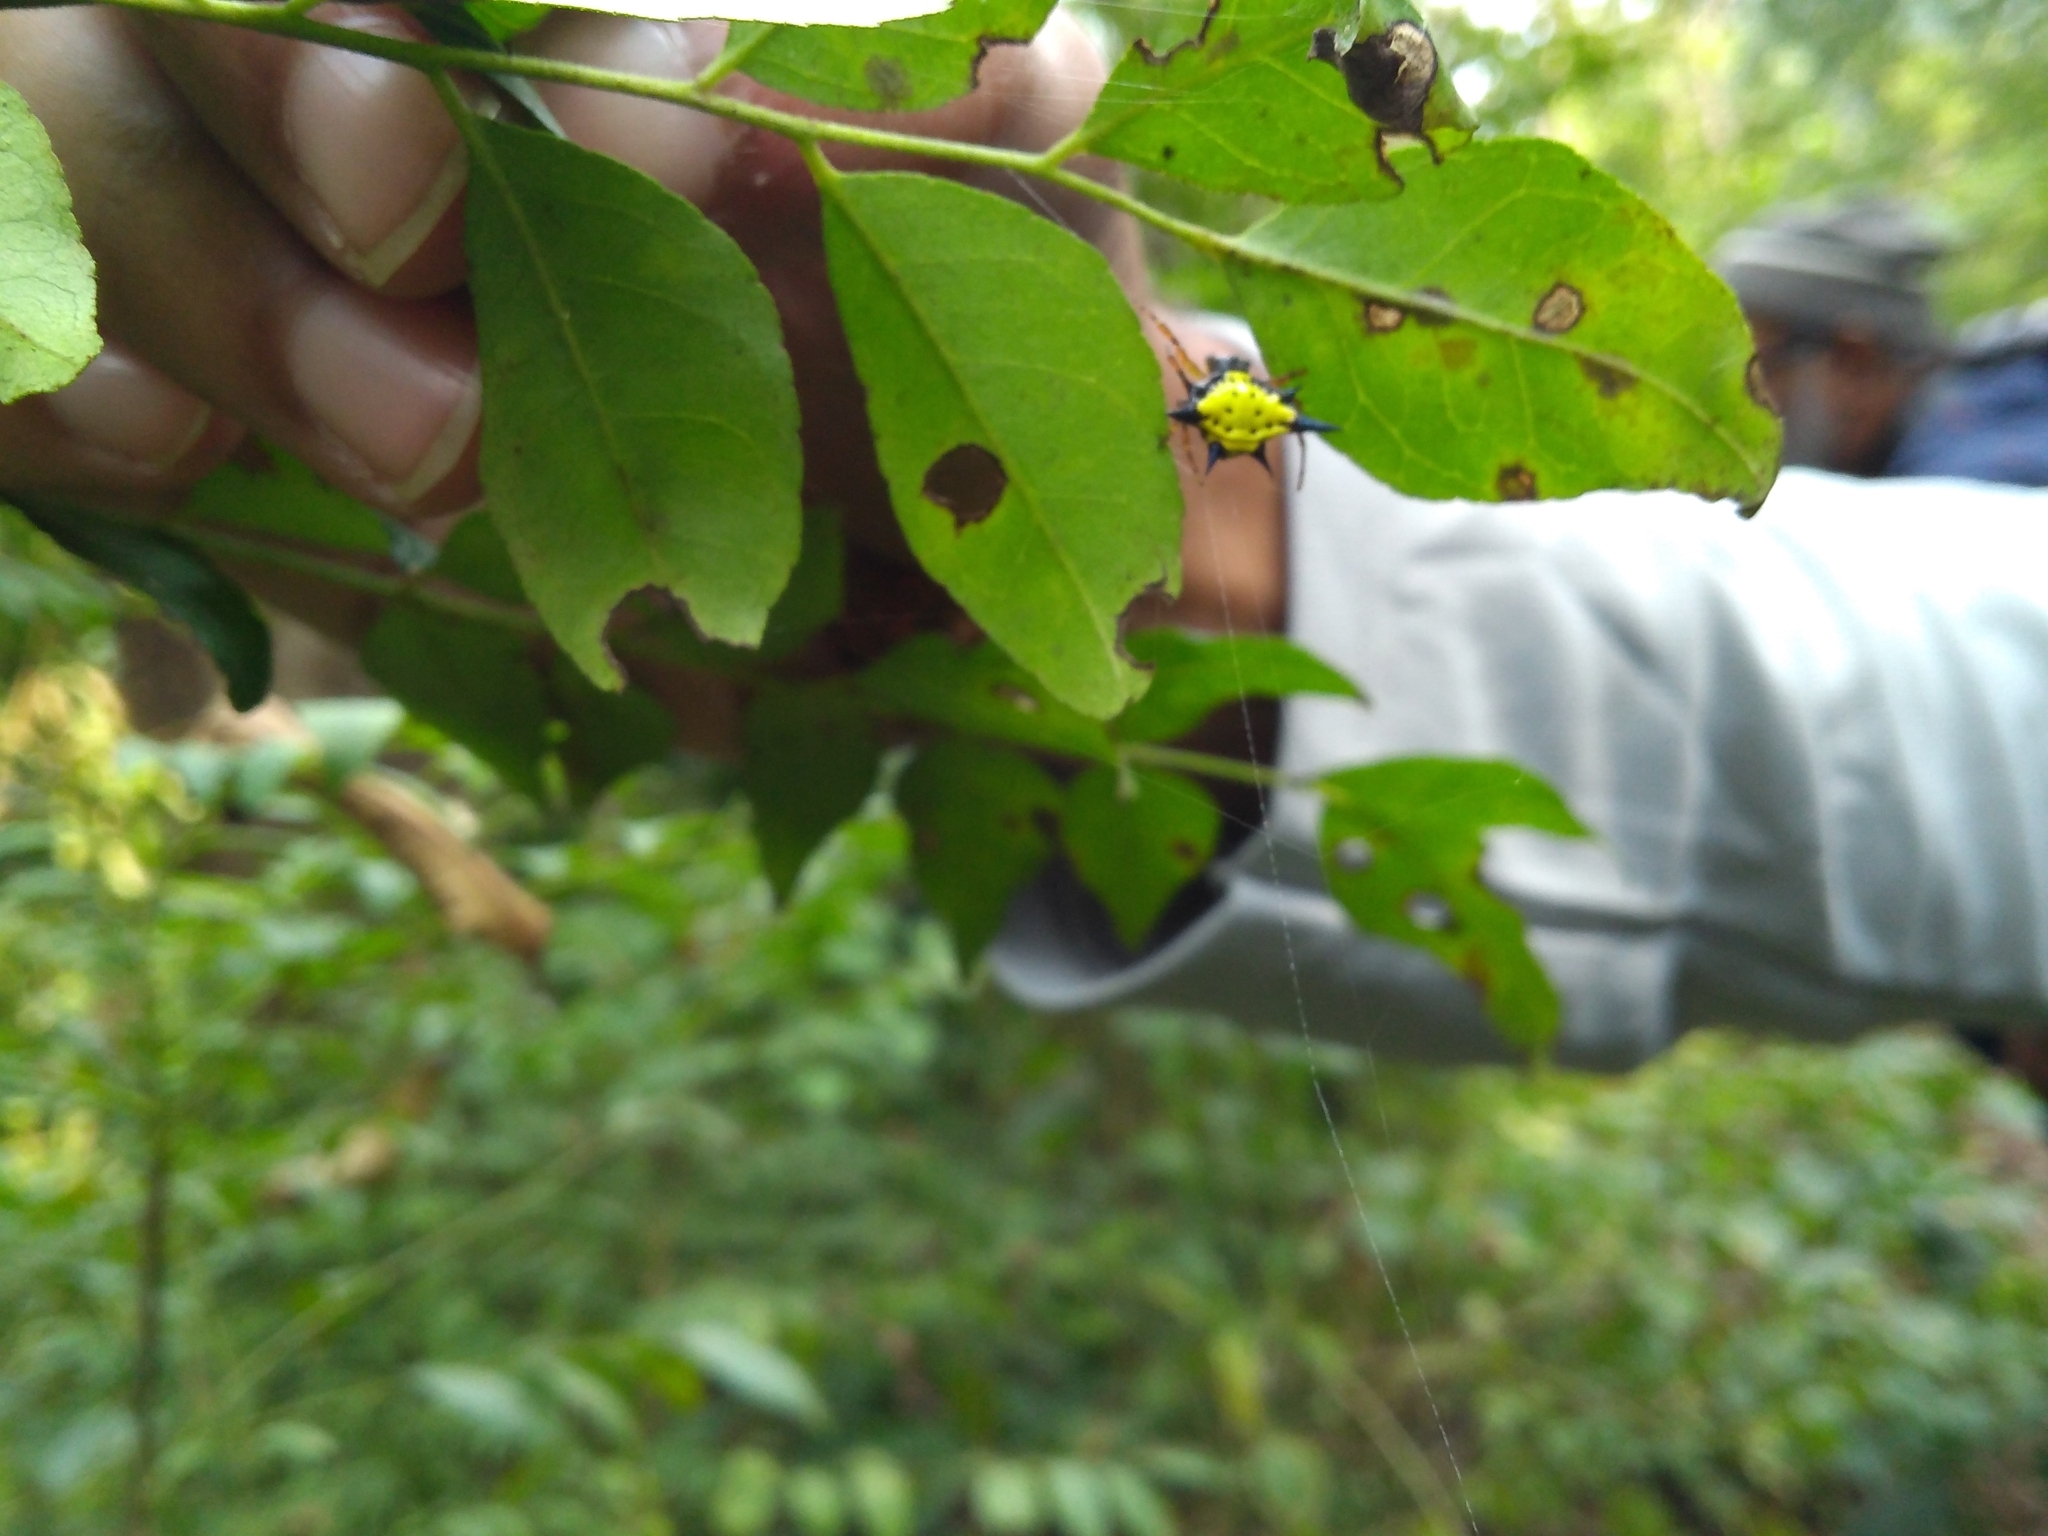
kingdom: Animalia
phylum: Arthropoda
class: Arachnida
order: Araneae
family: Araneidae
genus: Macracantha
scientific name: Macracantha hasselti
